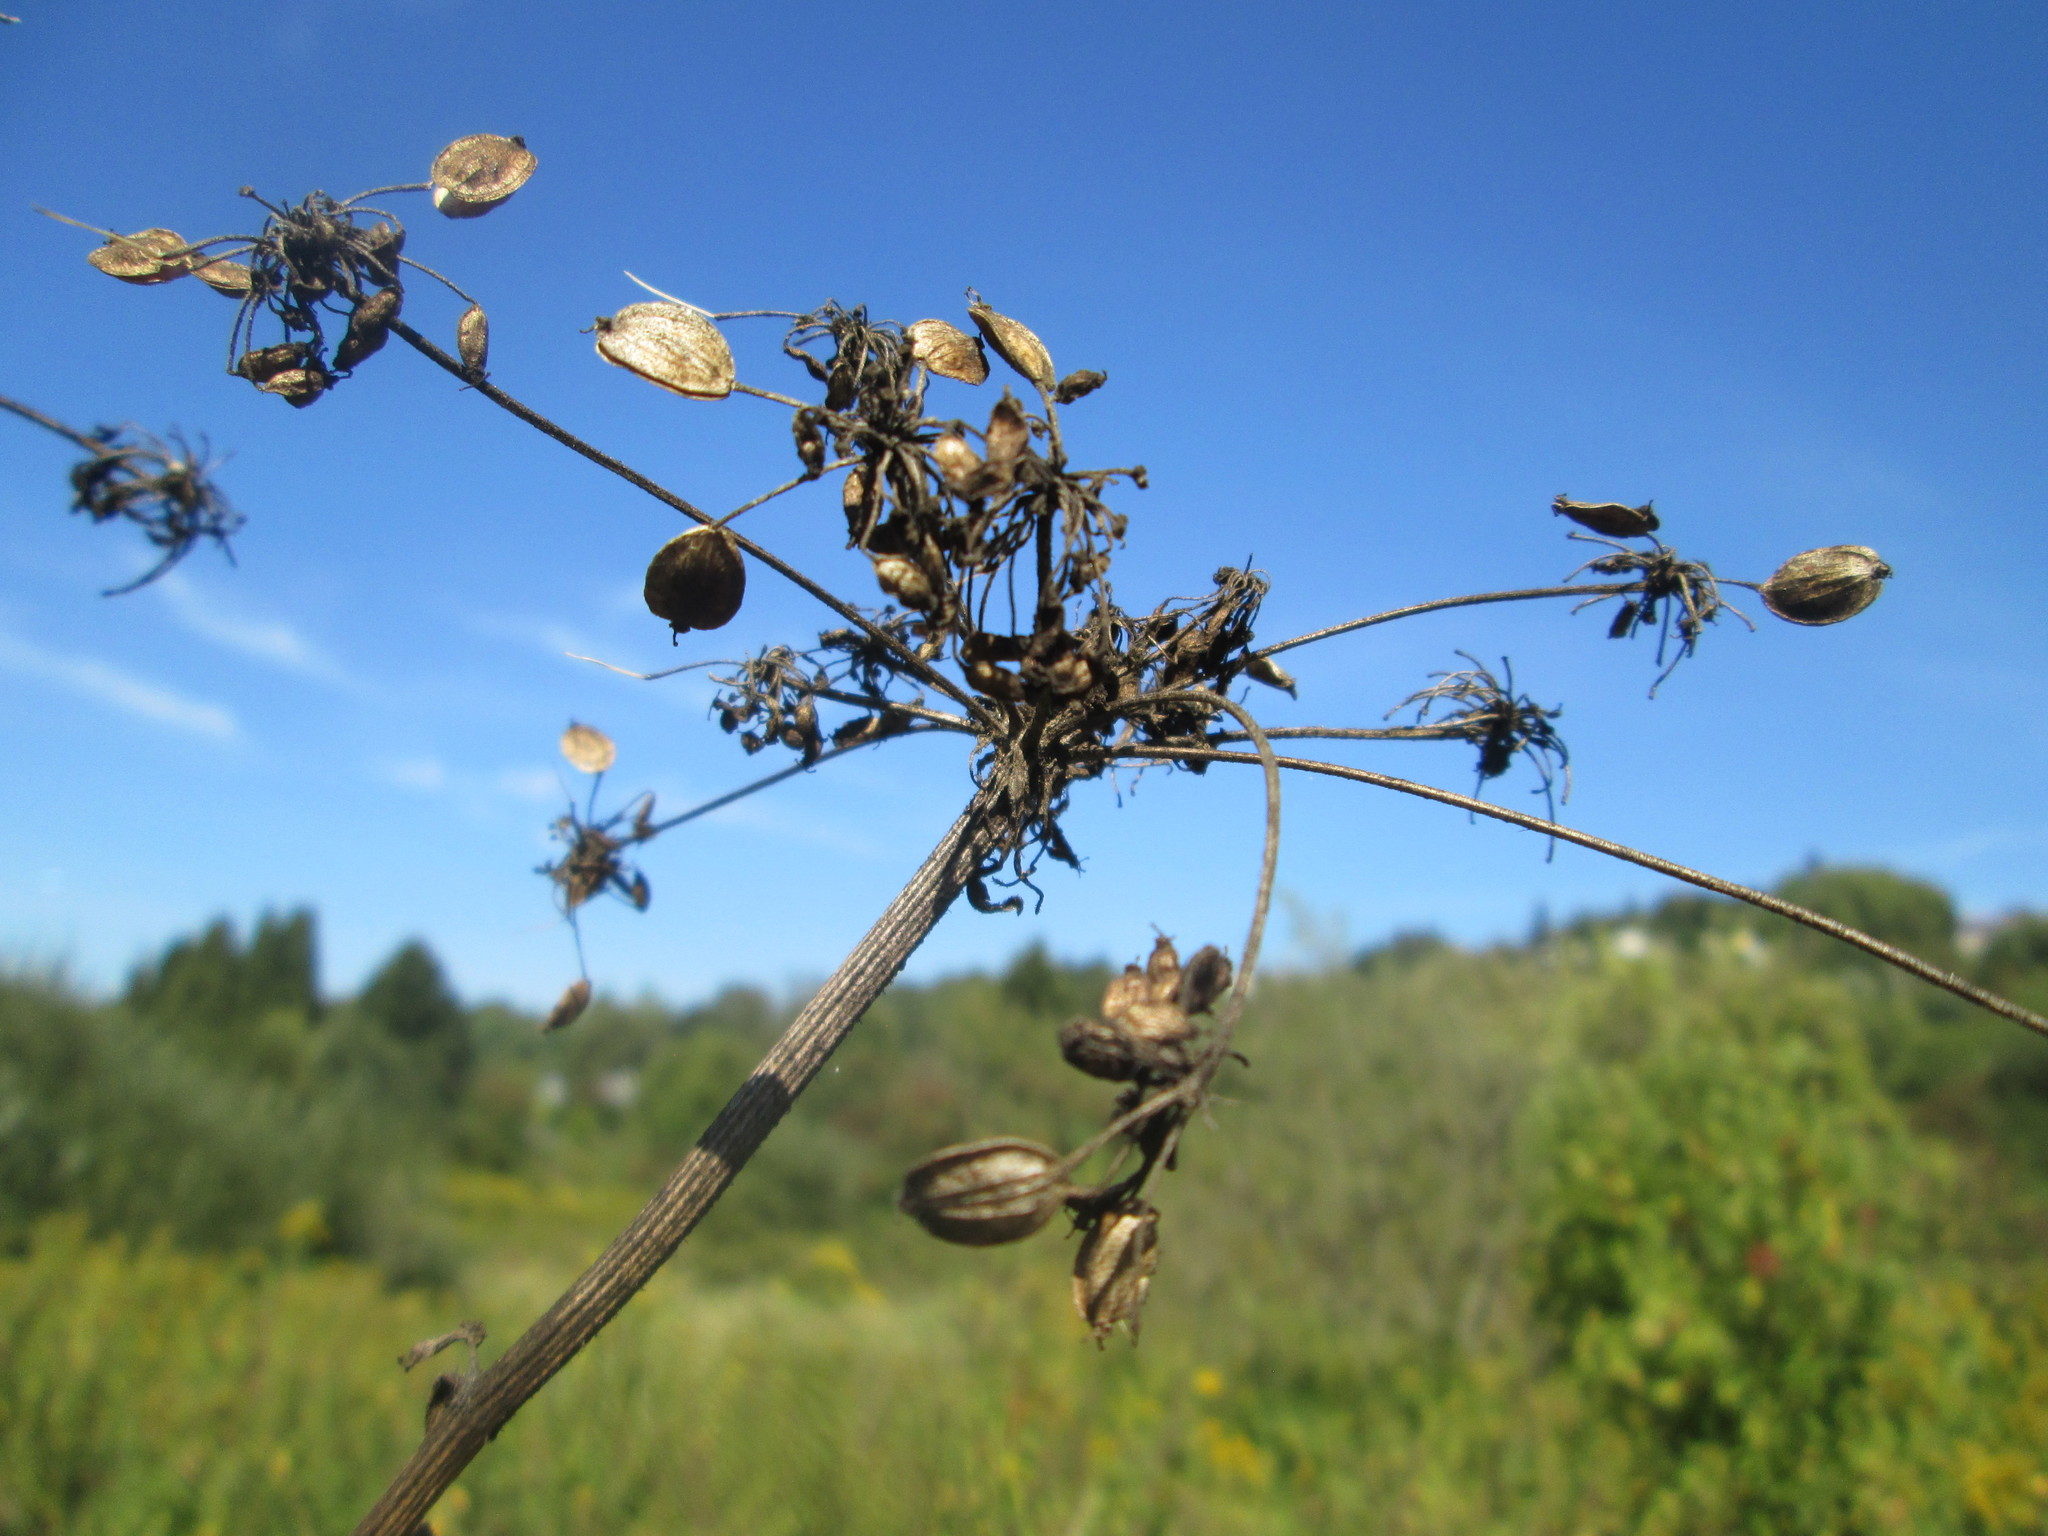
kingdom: Plantae
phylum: Tracheophyta
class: Magnoliopsida
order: Apiales
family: Apiaceae
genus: Heracleum
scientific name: Heracleum sphondylium
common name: Hogweed
